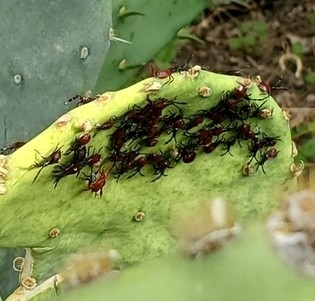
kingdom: Animalia
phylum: Arthropoda
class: Insecta
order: Hemiptera
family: Coreidae
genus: Chelinidea
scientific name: Chelinidea vittiger
